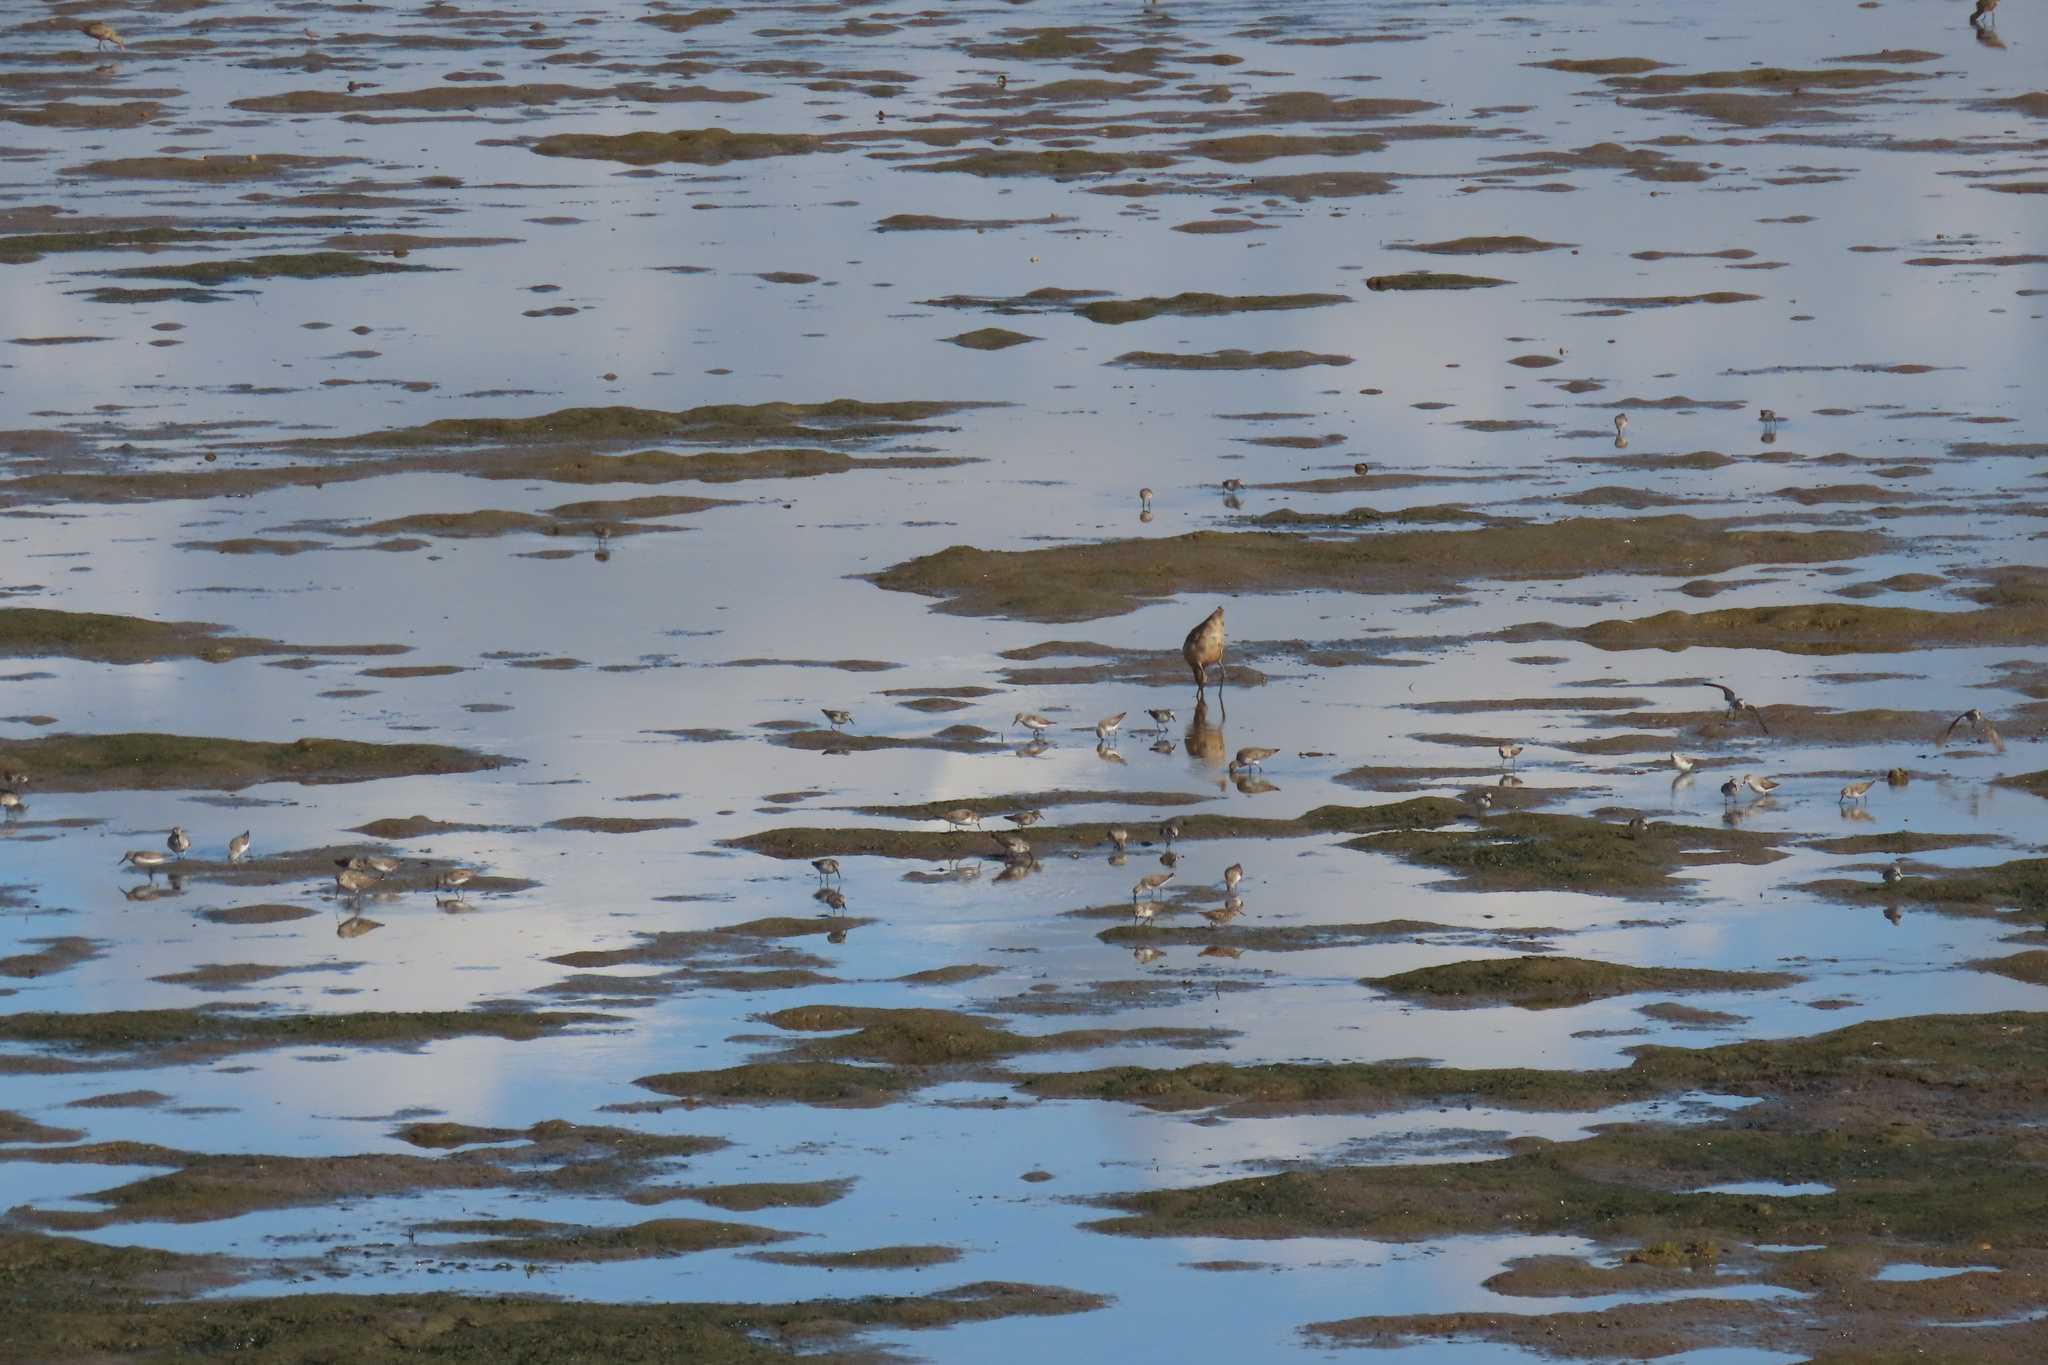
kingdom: Animalia
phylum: Chordata
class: Aves
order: Charadriiformes
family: Scolopacidae
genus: Calidris
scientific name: Calidris mauri
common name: Western sandpiper
